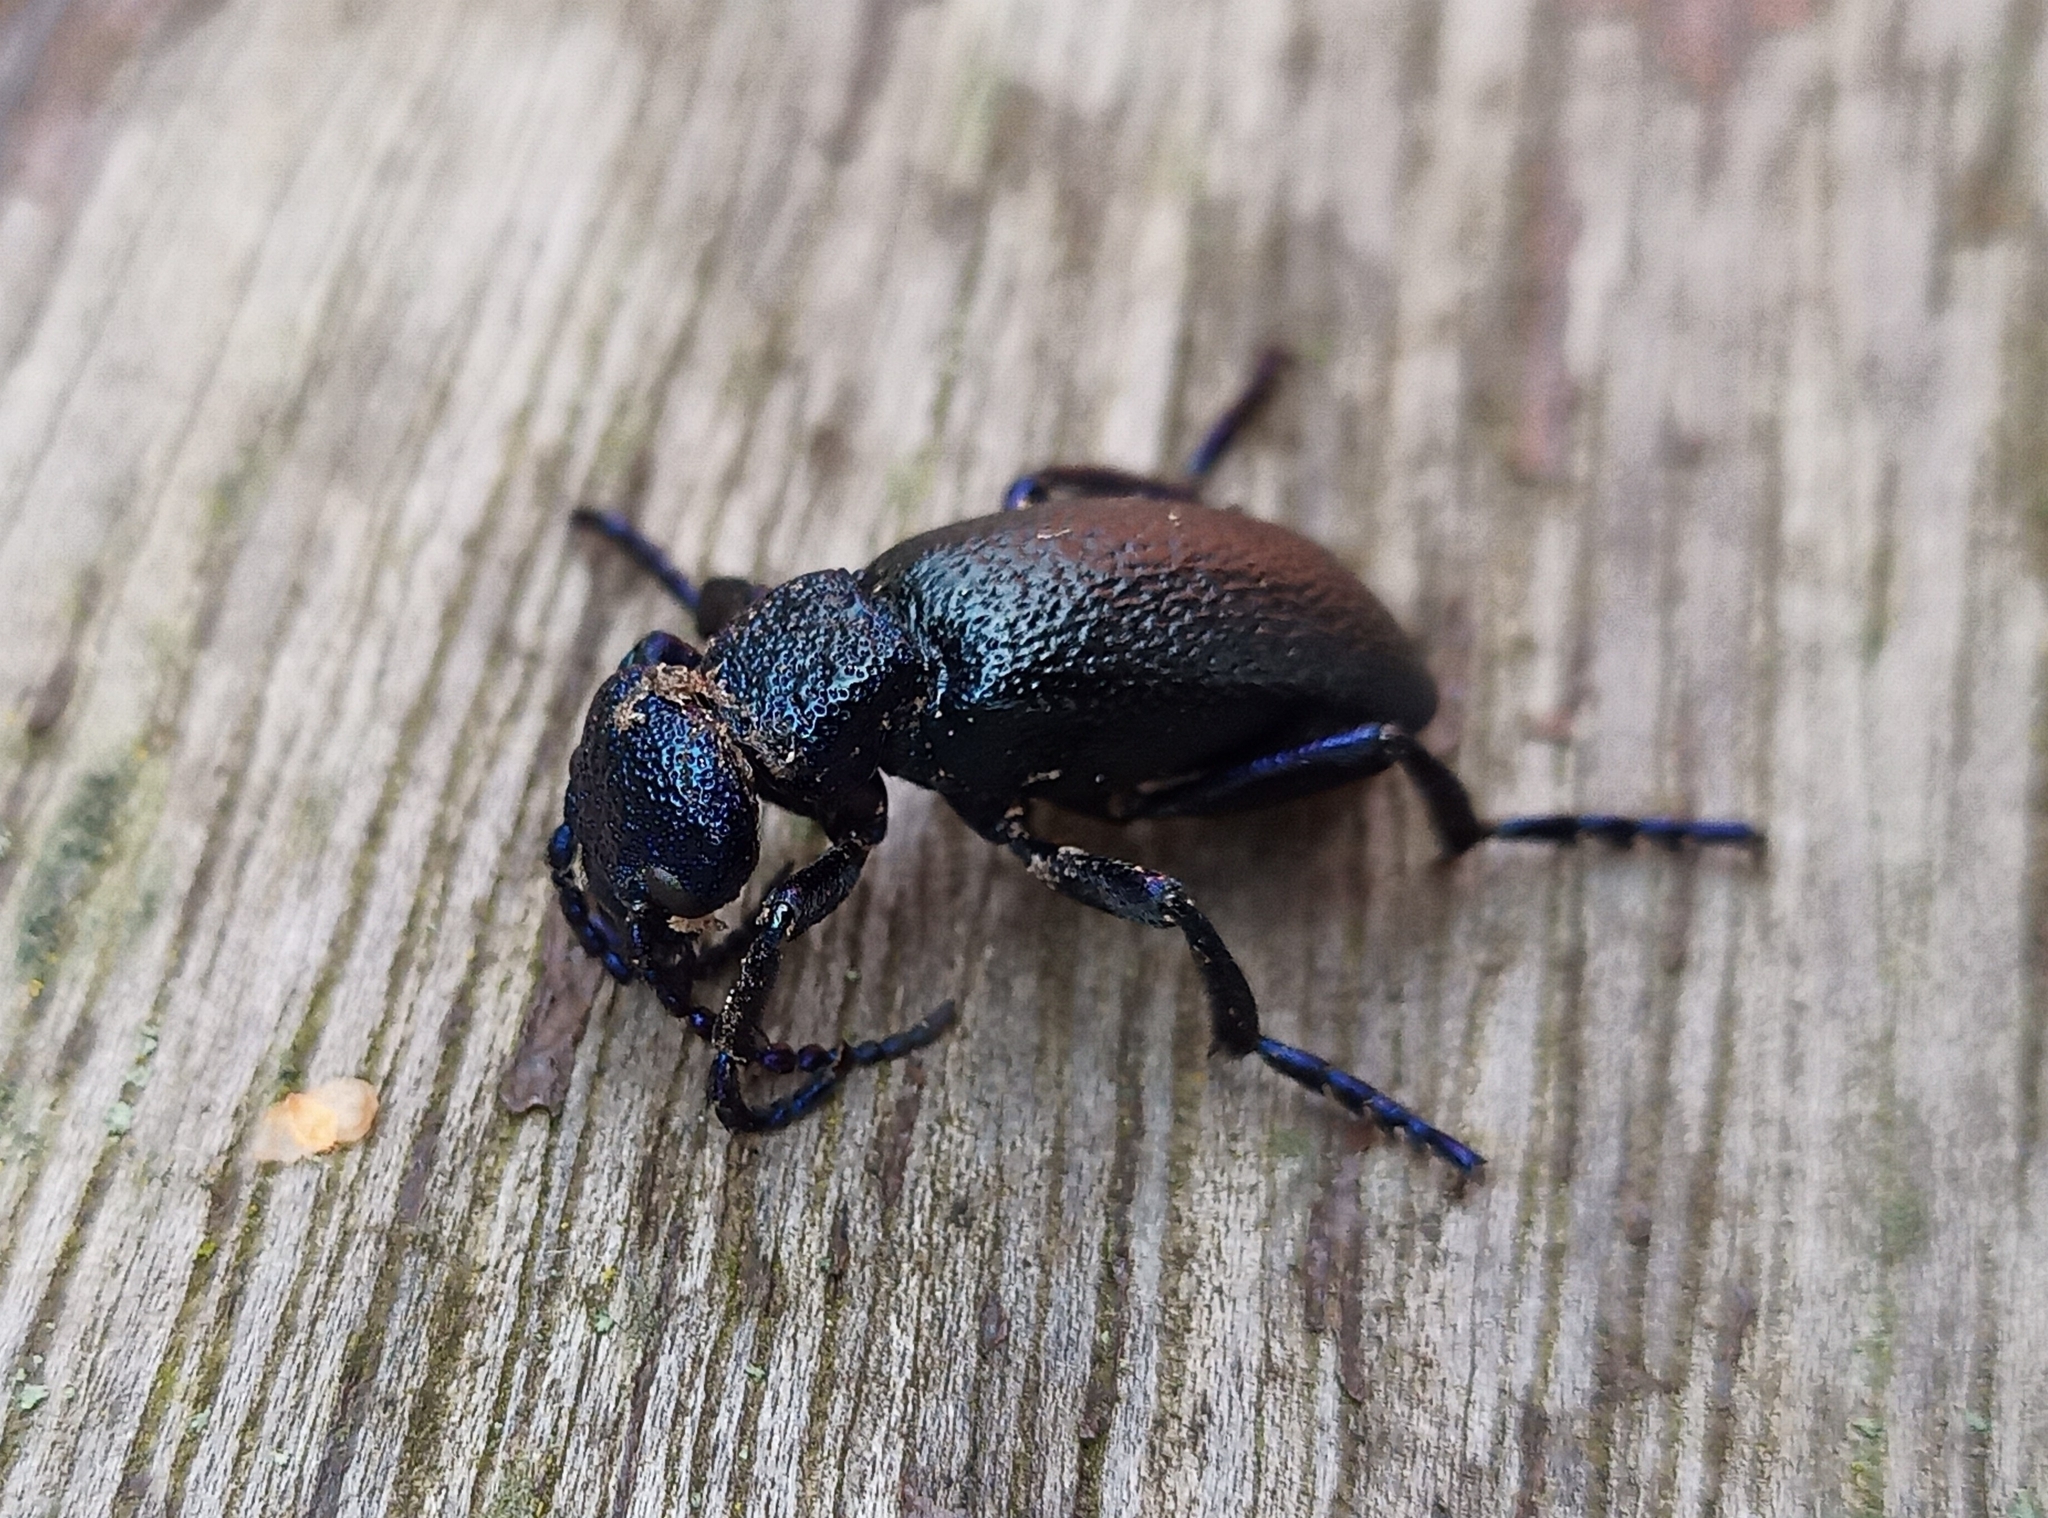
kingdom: Animalia
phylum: Arthropoda
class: Insecta
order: Coleoptera
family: Meloidae
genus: Meloe
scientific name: Meloe proscarabaeus
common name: Black oil-beetle
